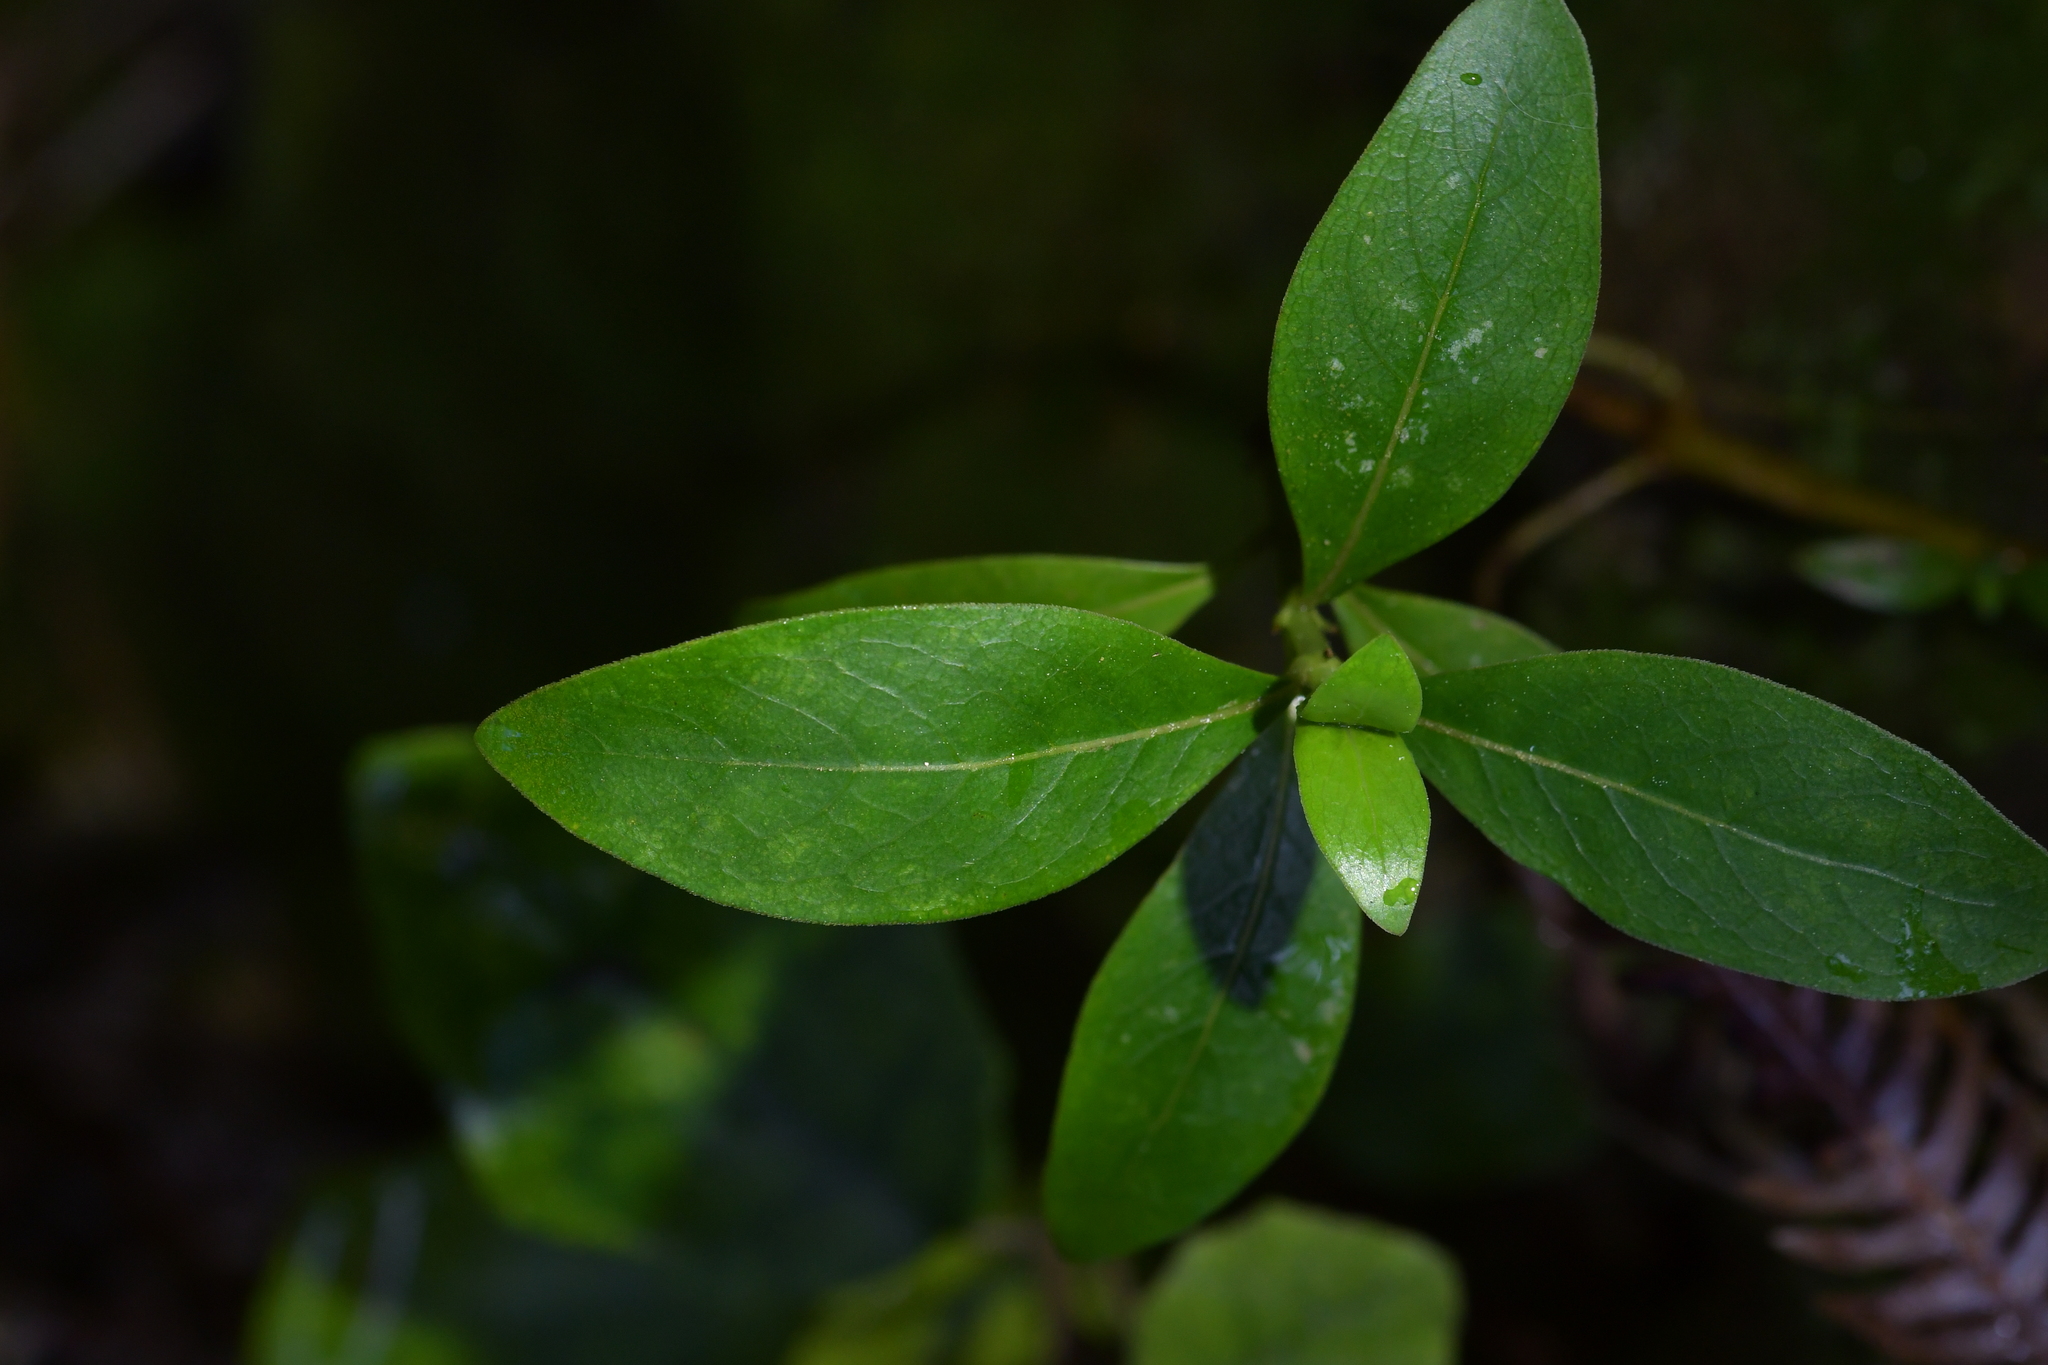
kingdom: Plantae
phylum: Tracheophyta
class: Magnoliopsida
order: Gentianales
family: Rubiaceae
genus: Coprosma
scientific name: Coprosma robusta
